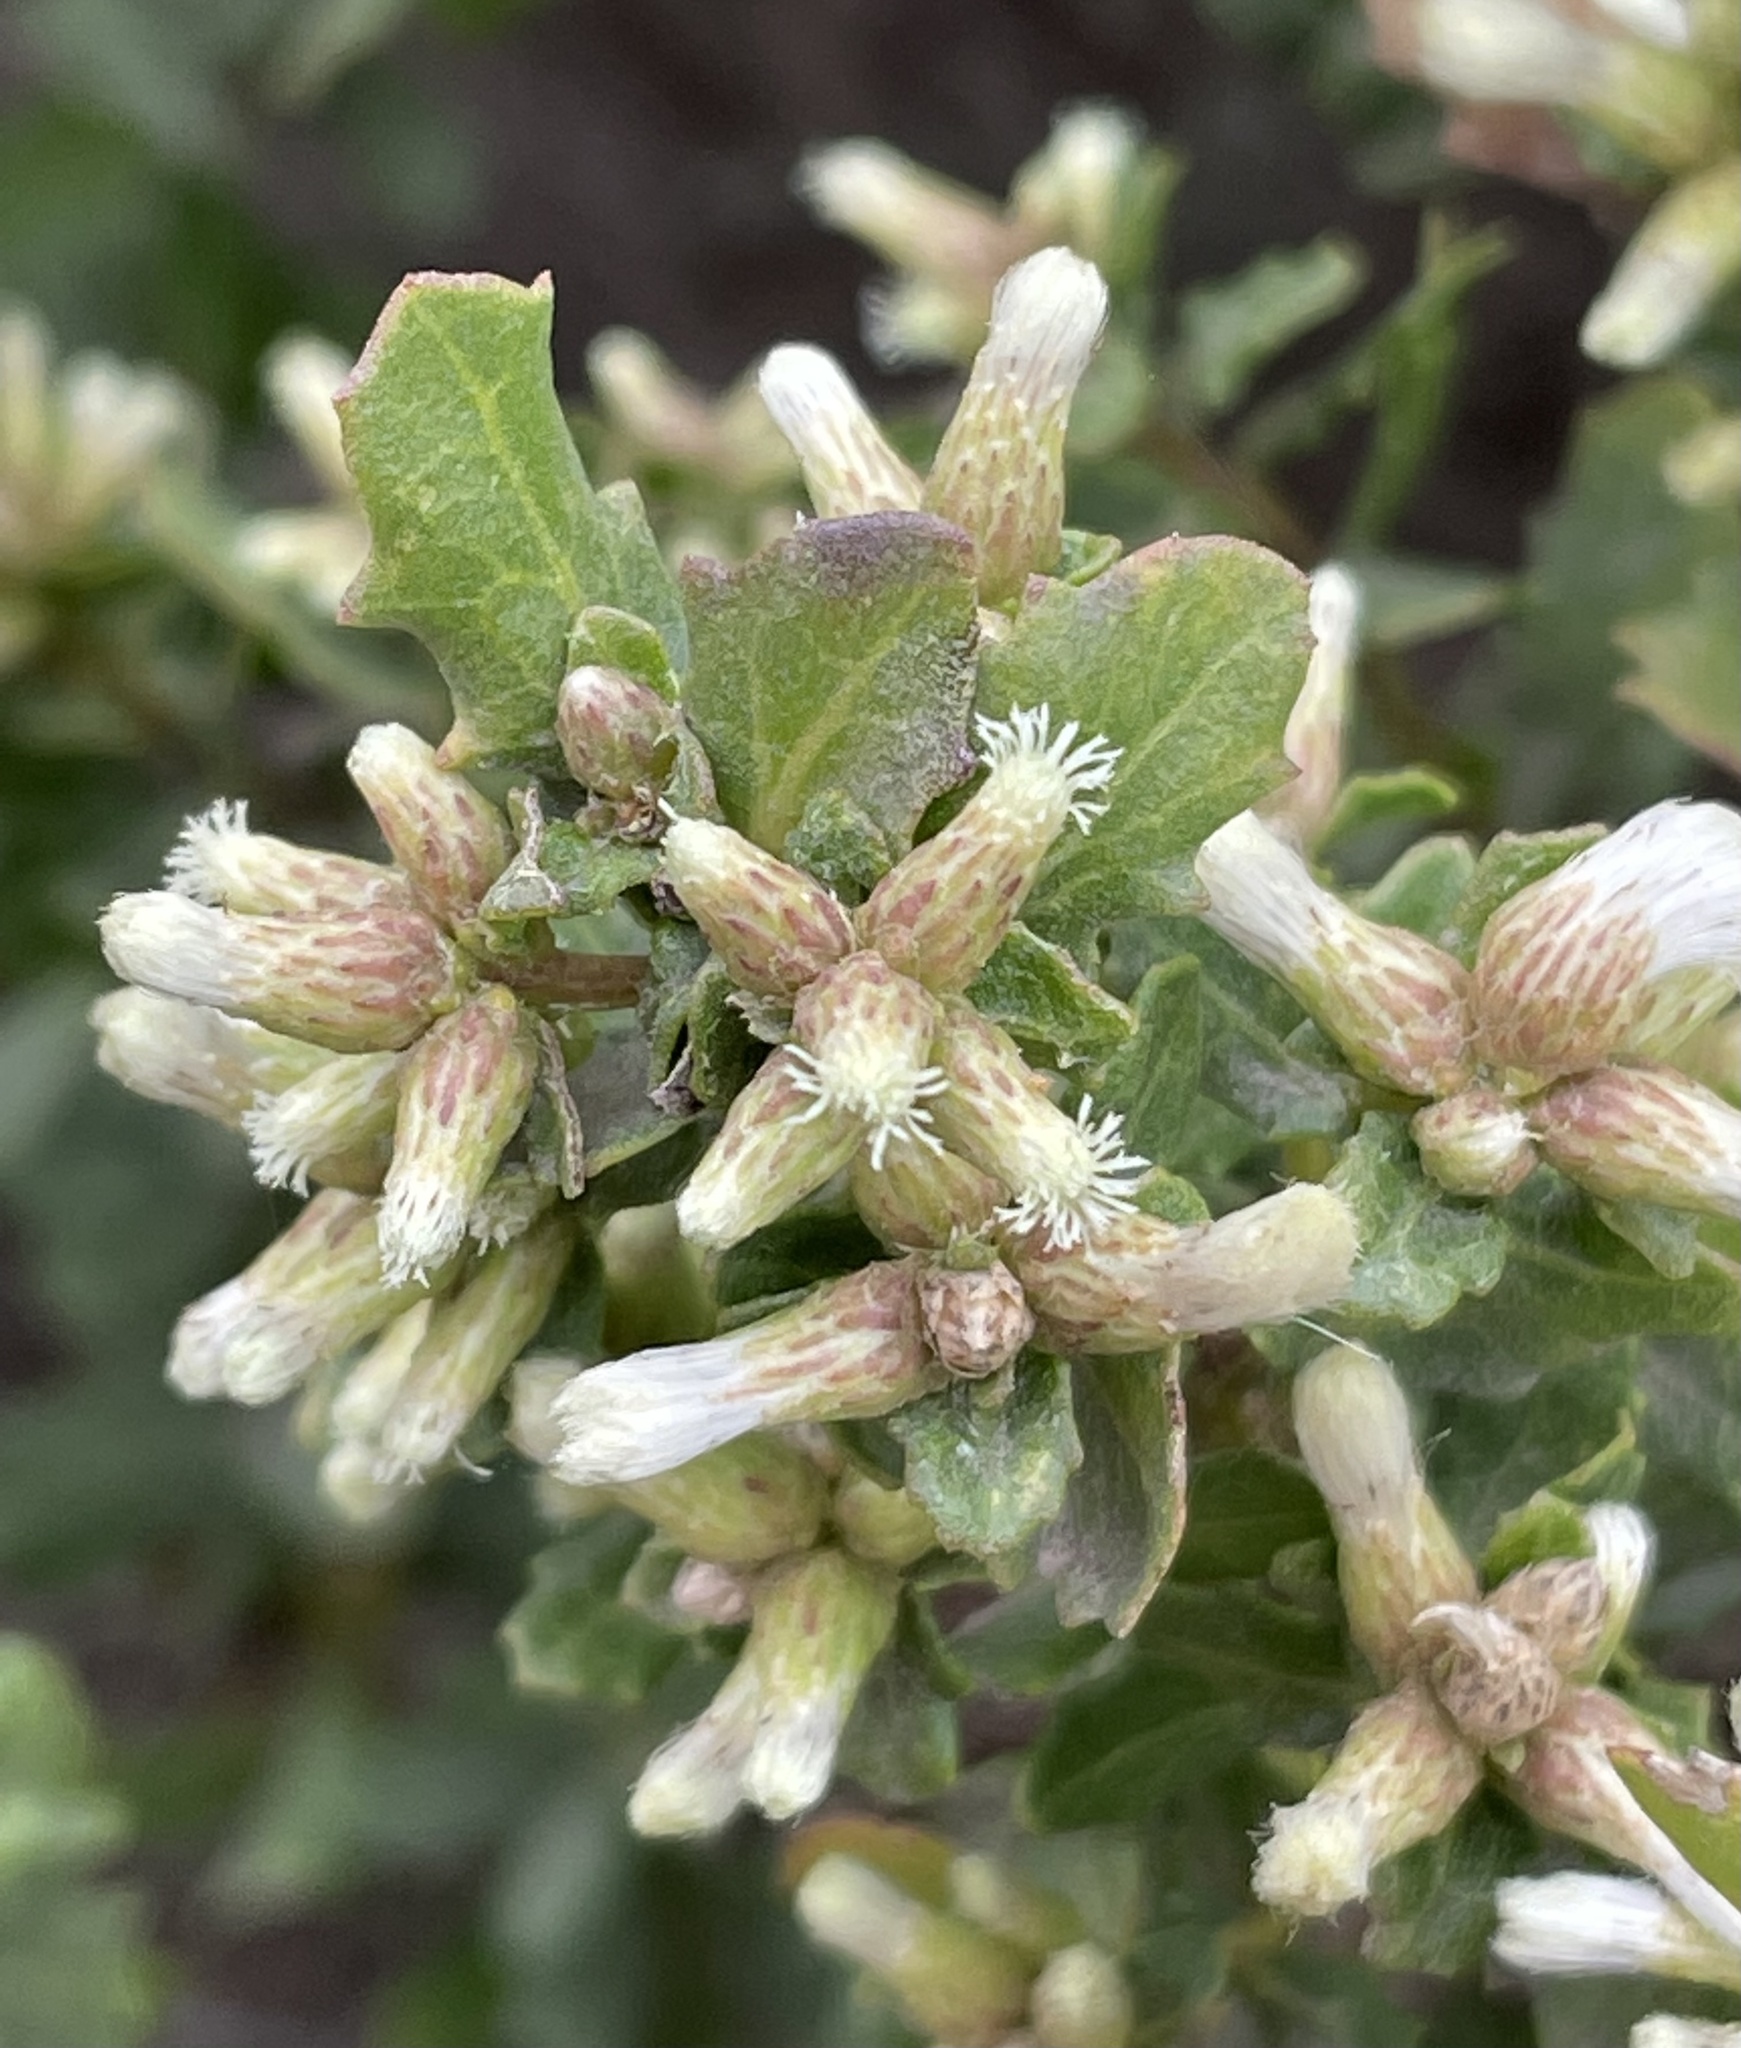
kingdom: Plantae
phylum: Tracheophyta
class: Magnoliopsida
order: Asterales
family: Asteraceae
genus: Baccharis
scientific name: Baccharis pilularis
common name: Coyotebrush
